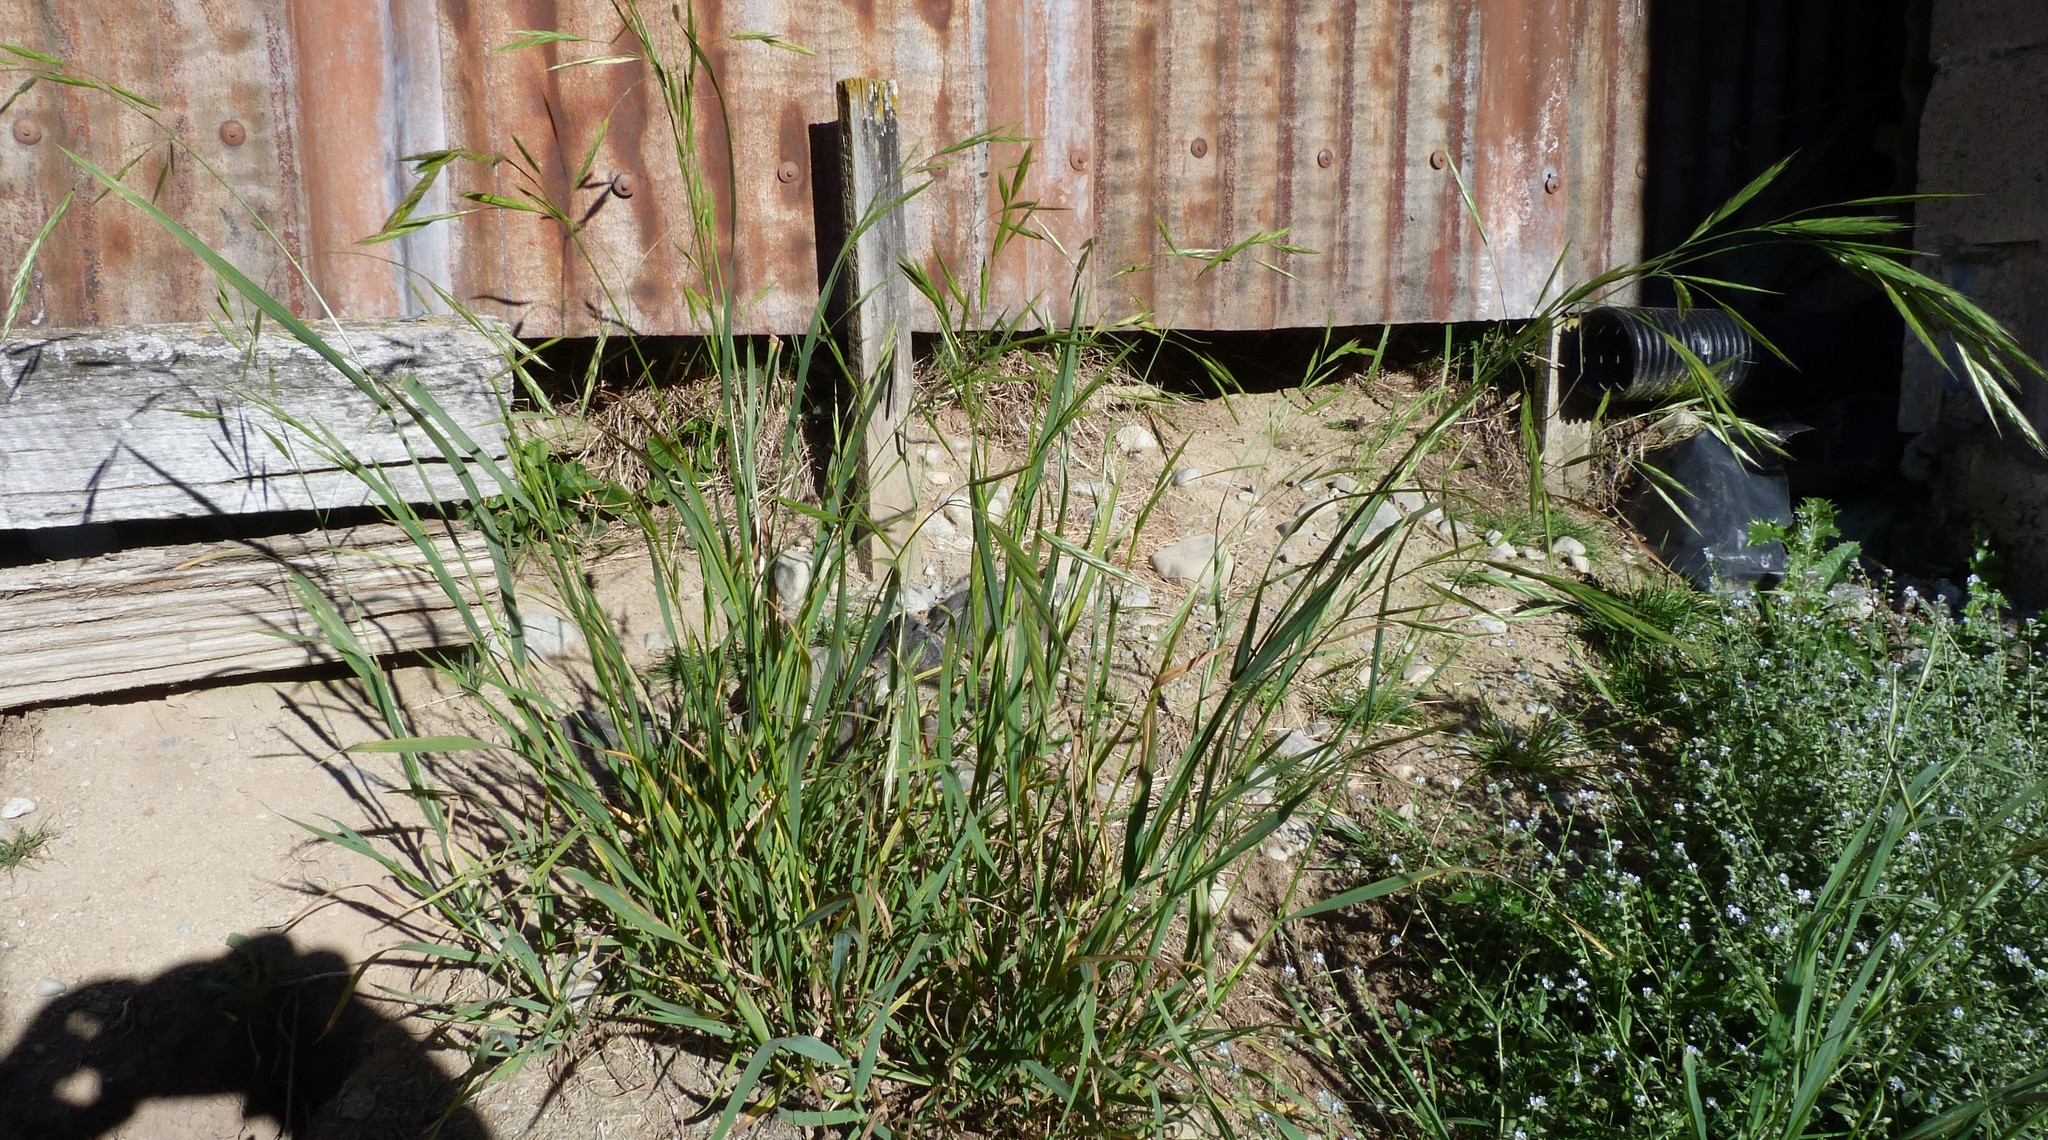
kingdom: Plantae
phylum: Tracheophyta
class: Liliopsida
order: Poales
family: Poaceae
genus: Bromus
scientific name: Bromus catharticus
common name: Rescuegrass
